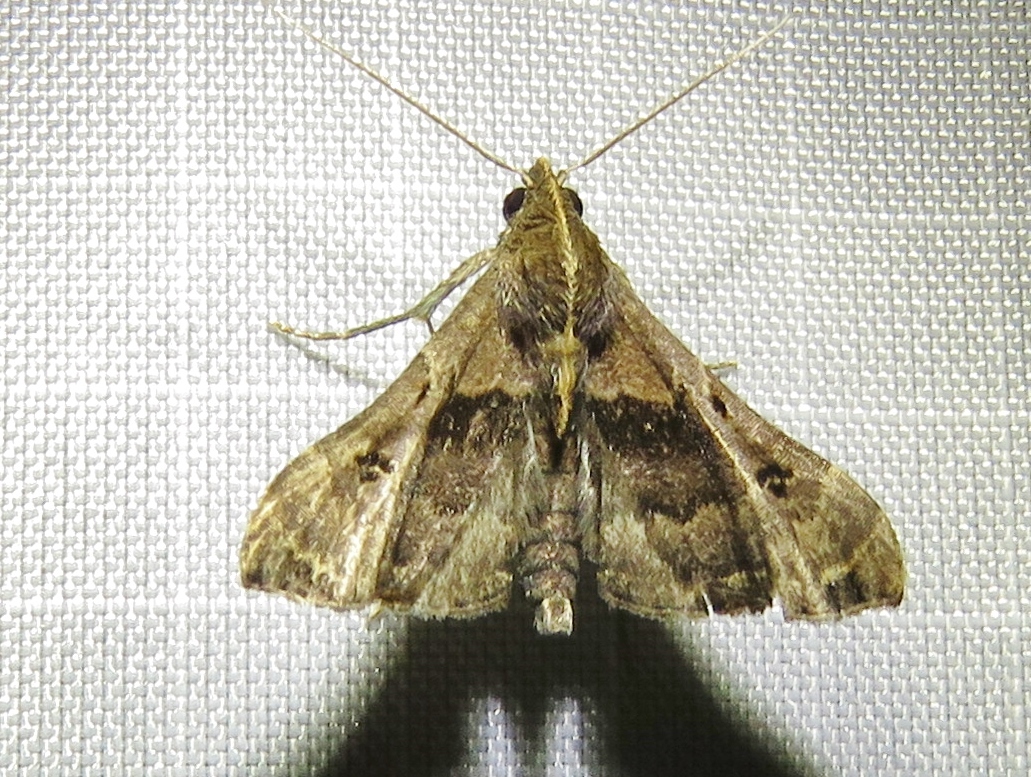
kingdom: Animalia
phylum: Arthropoda
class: Insecta
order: Lepidoptera
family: Erebidae
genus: Palthis
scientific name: Palthis asopialis
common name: Faint-spotted palthis moth
